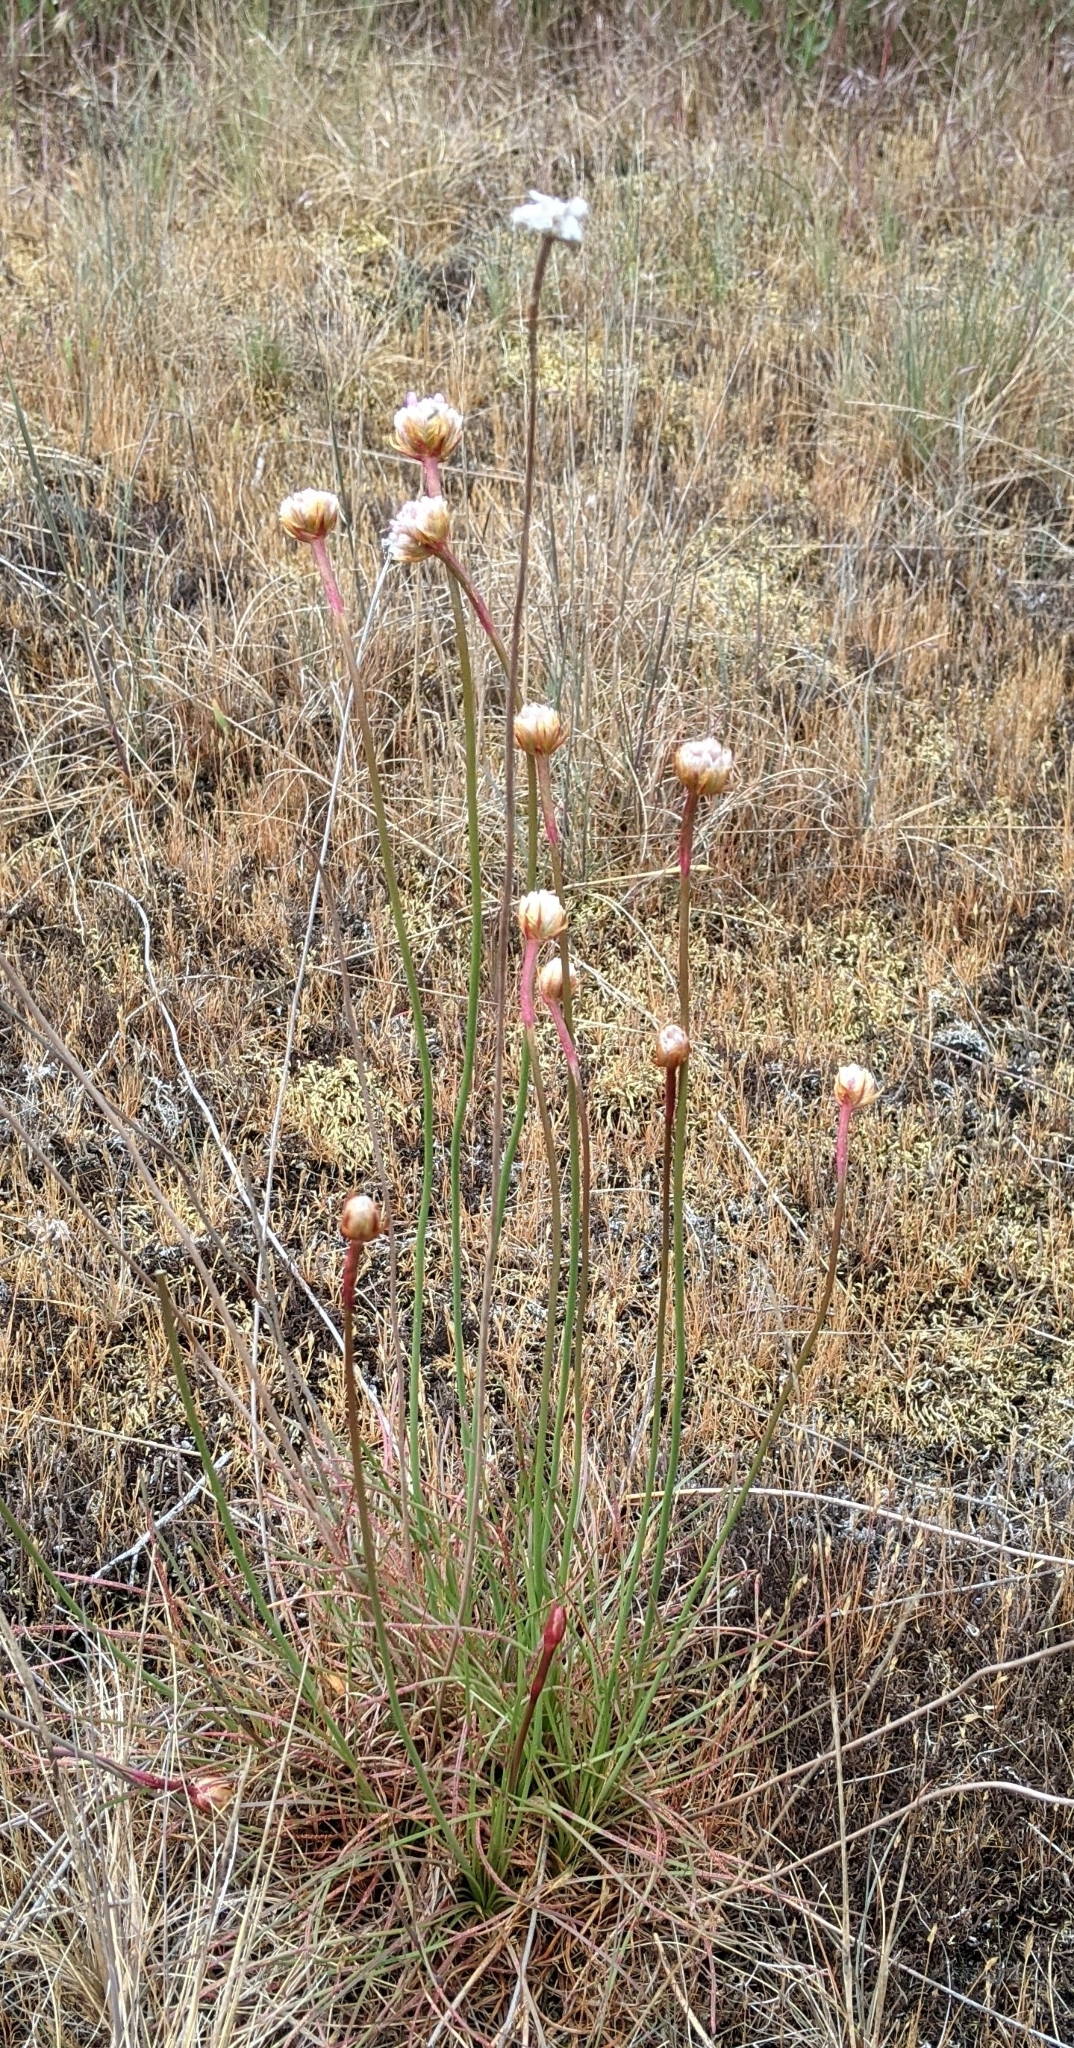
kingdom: Plantae
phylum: Tracheophyta
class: Magnoliopsida
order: Caryophyllales
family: Plumbaginaceae
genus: Armeria
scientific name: Armeria maritima
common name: Thrift
